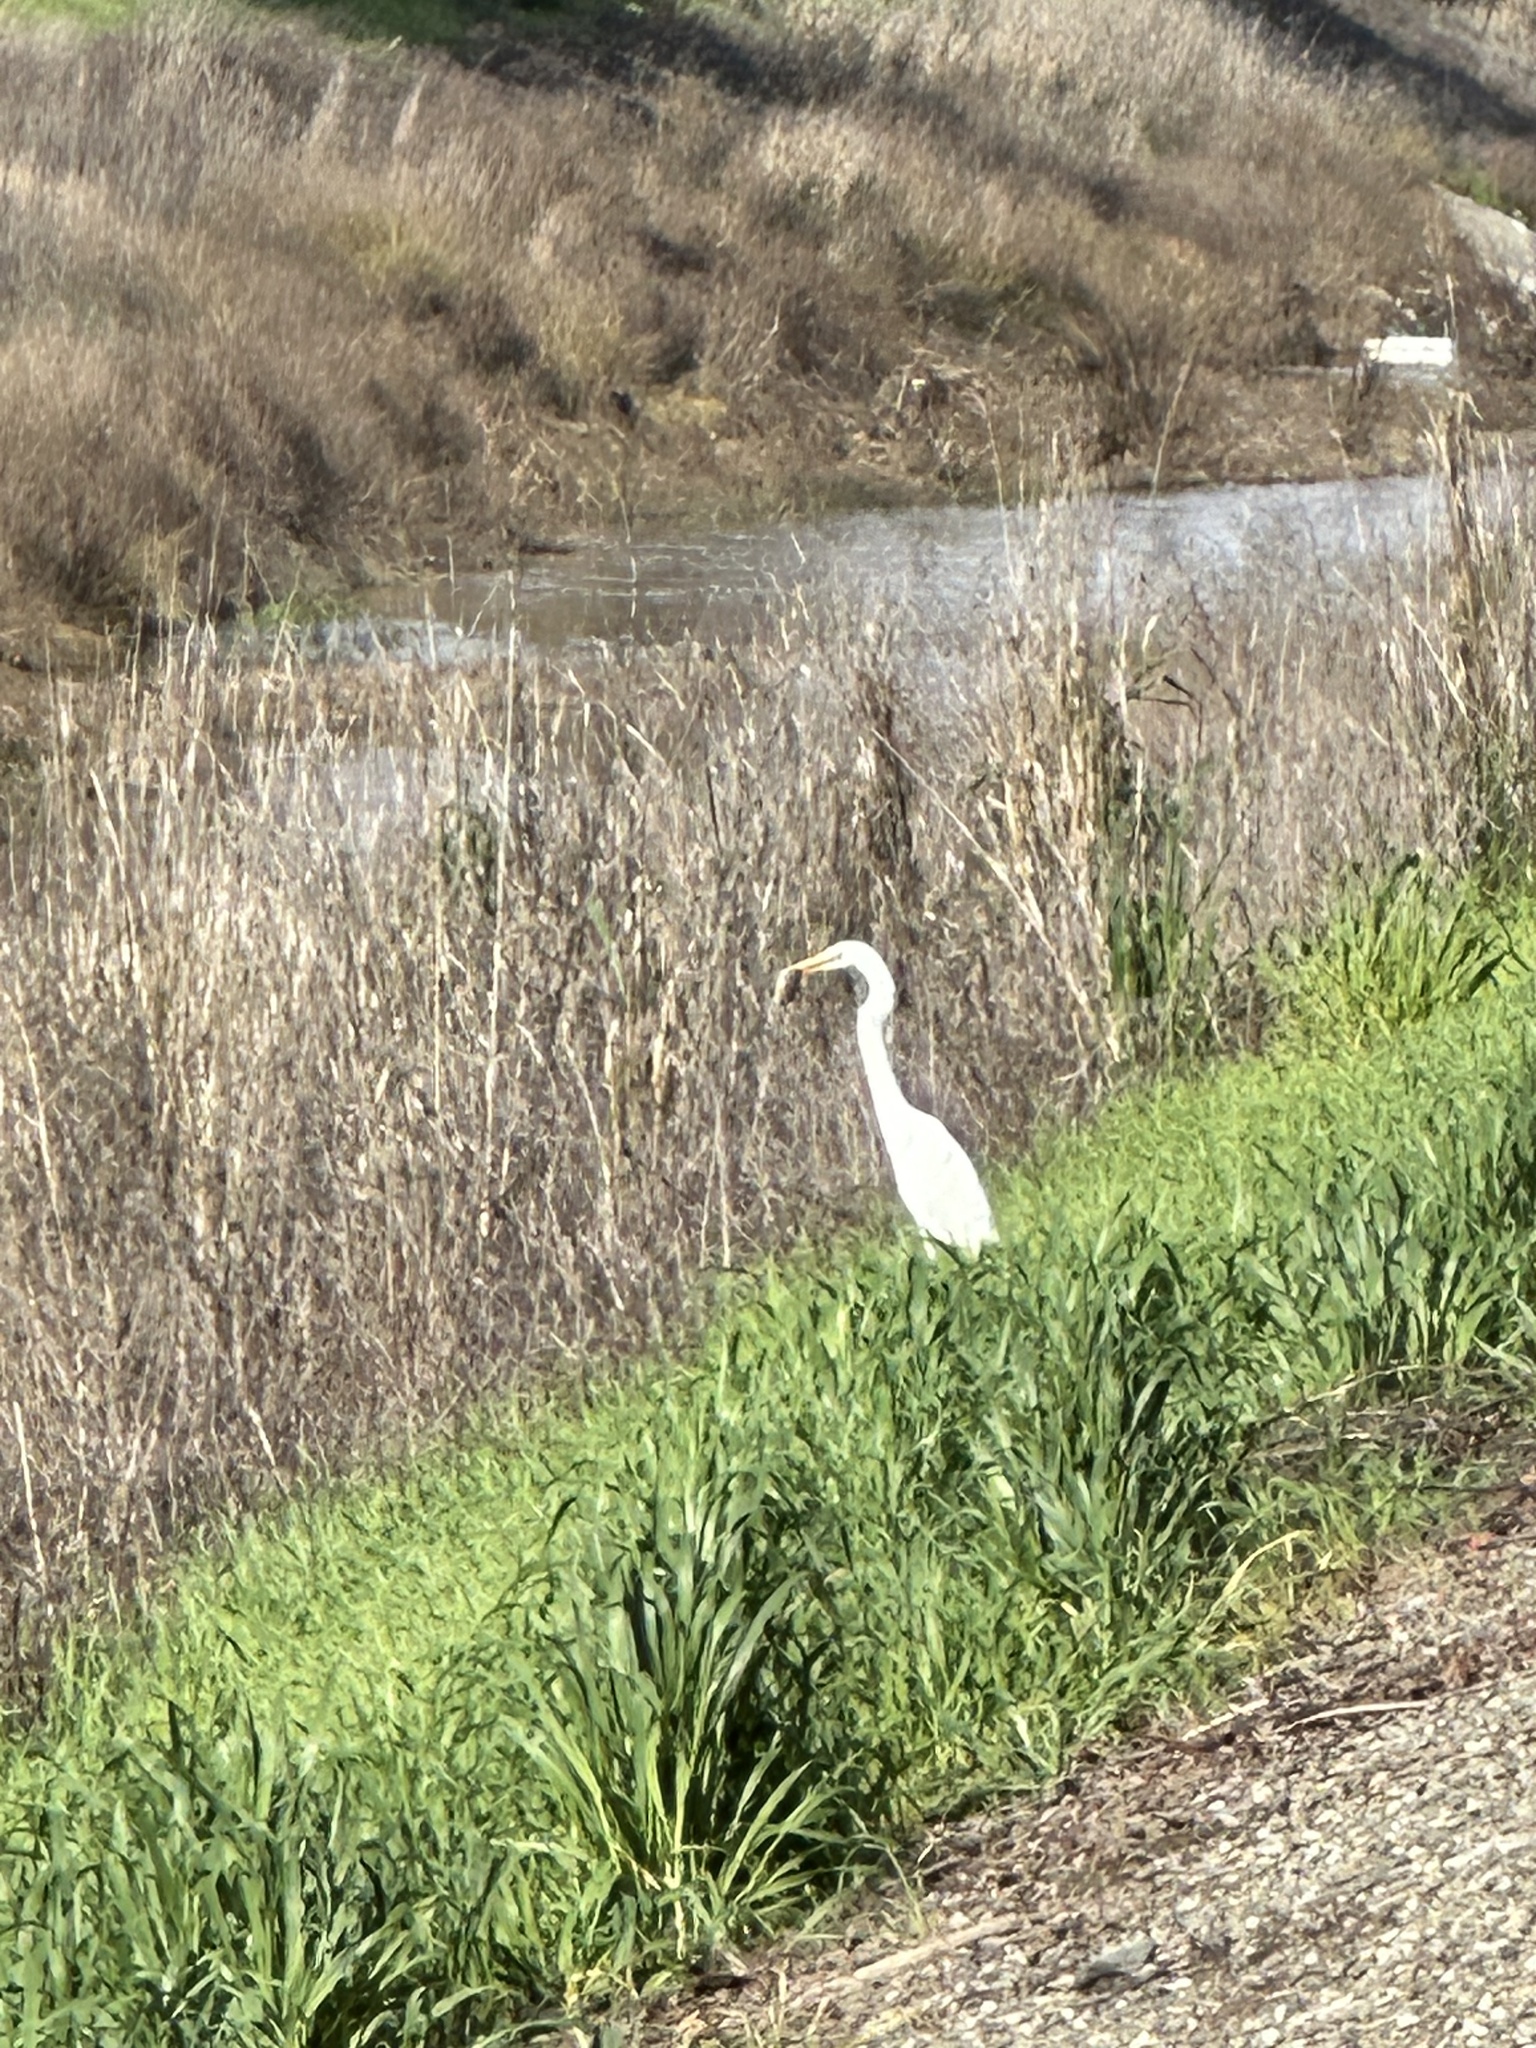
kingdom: Animalia
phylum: Chordata
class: Aves
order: Pelecaniformes
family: Ardeidae
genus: Ardea
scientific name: Ardea alba
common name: Great egret
